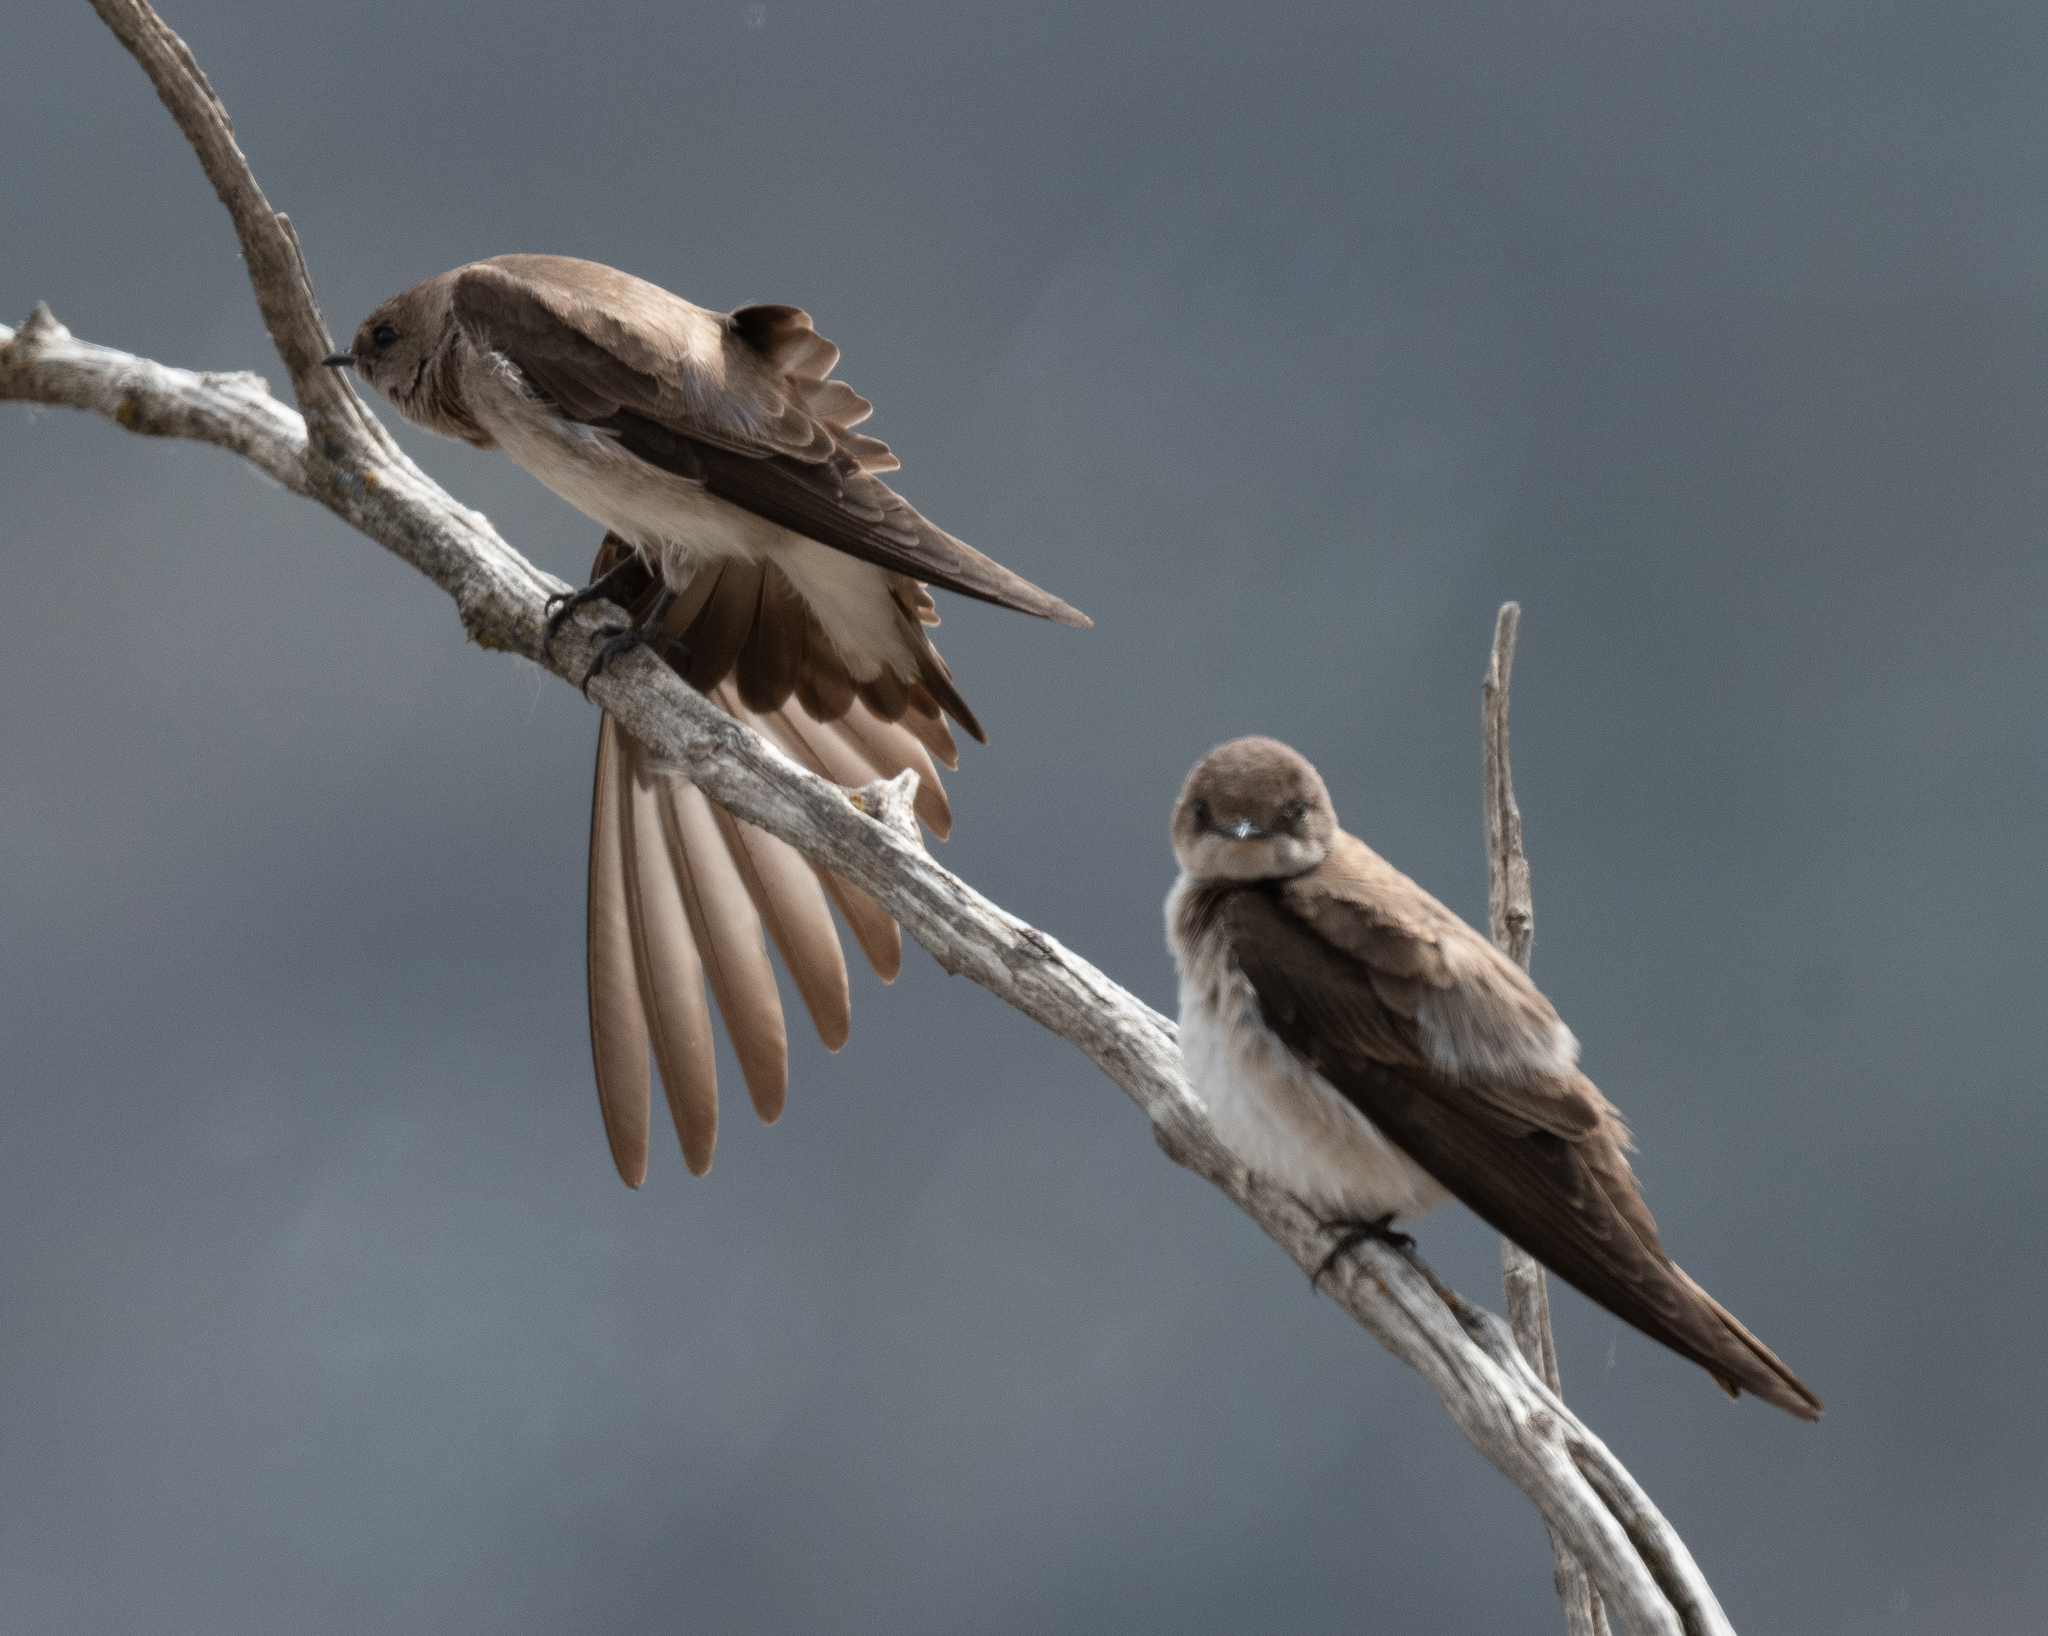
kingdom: Animalia
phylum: Chordata
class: Aves
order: Passeriformes
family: Hirundinidae
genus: Stelgidopteryx
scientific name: Stelgidopteryx serripennis
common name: Northern rough-winged swallow
